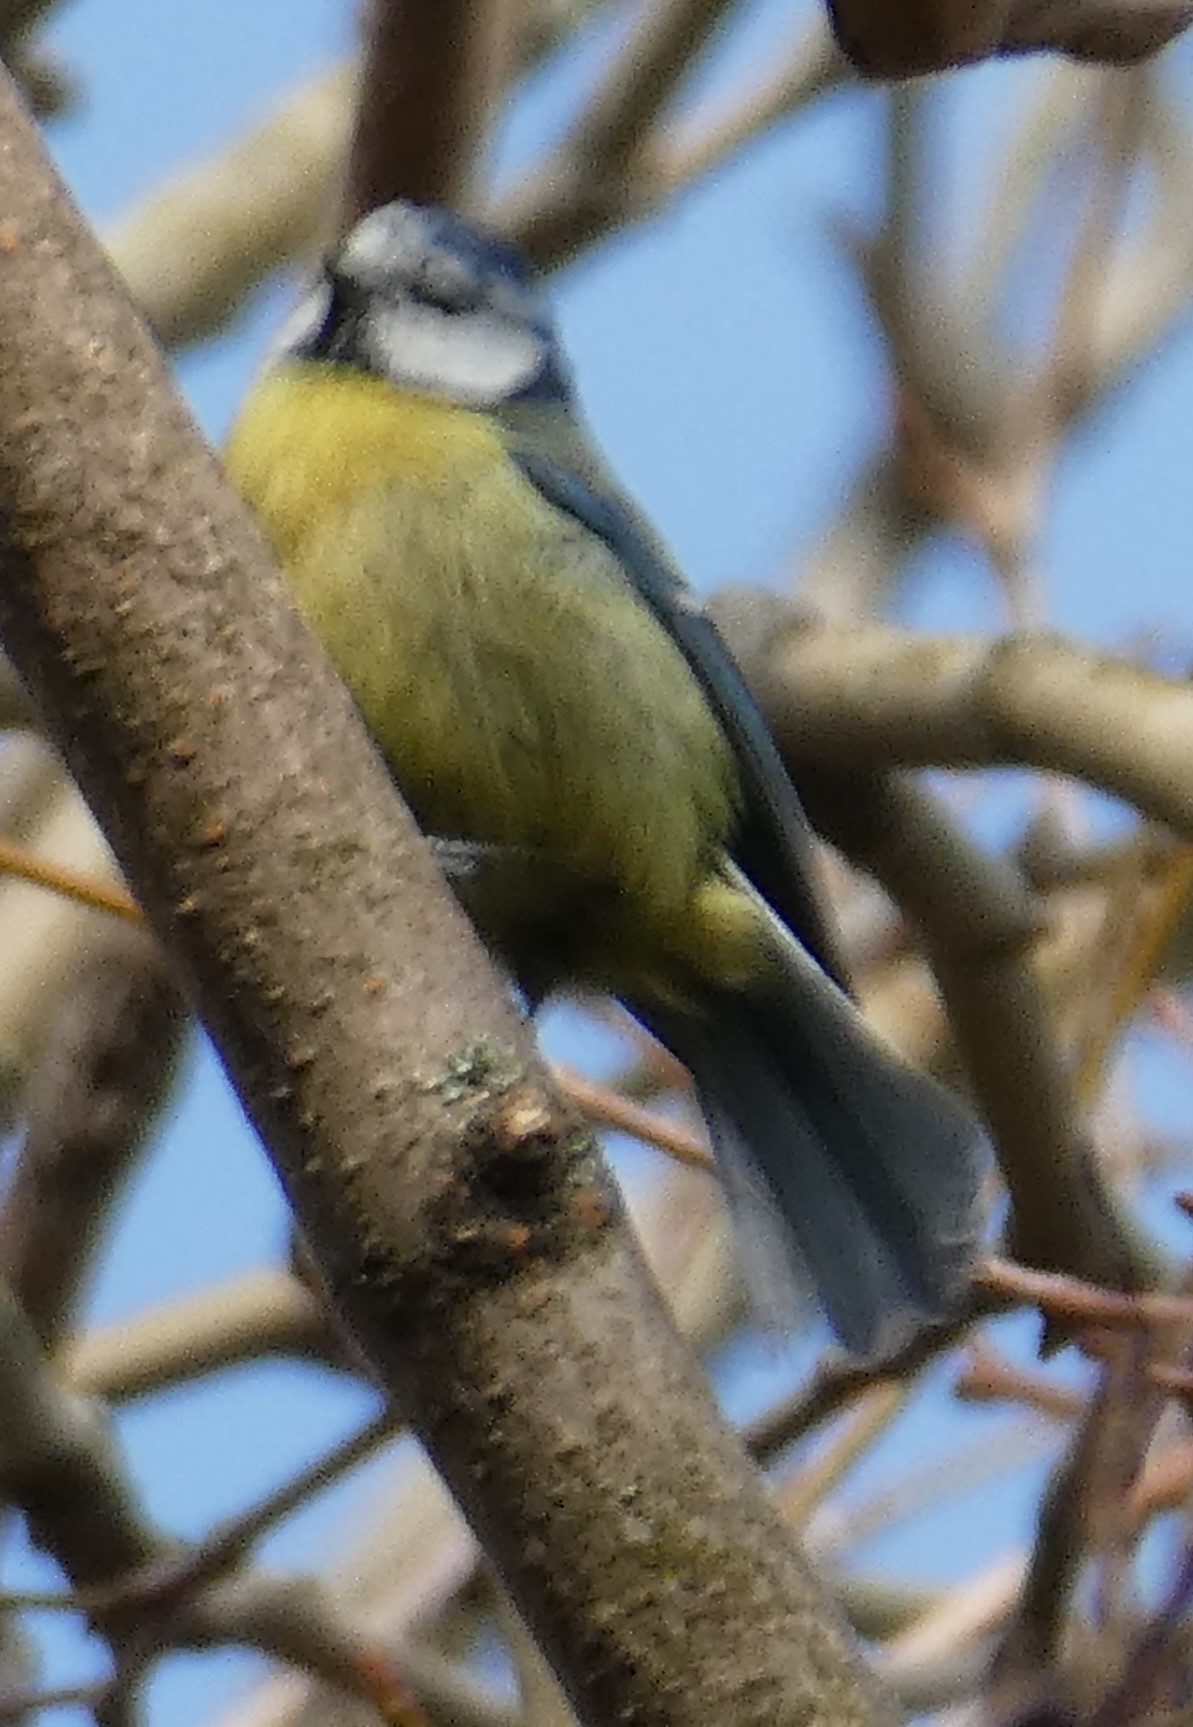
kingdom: Animalia
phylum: Chordata
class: Aves
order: Passeriformes
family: Paridae
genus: Cyanistes
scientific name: Cyanistes caeruleus
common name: Eurasian blue tit
